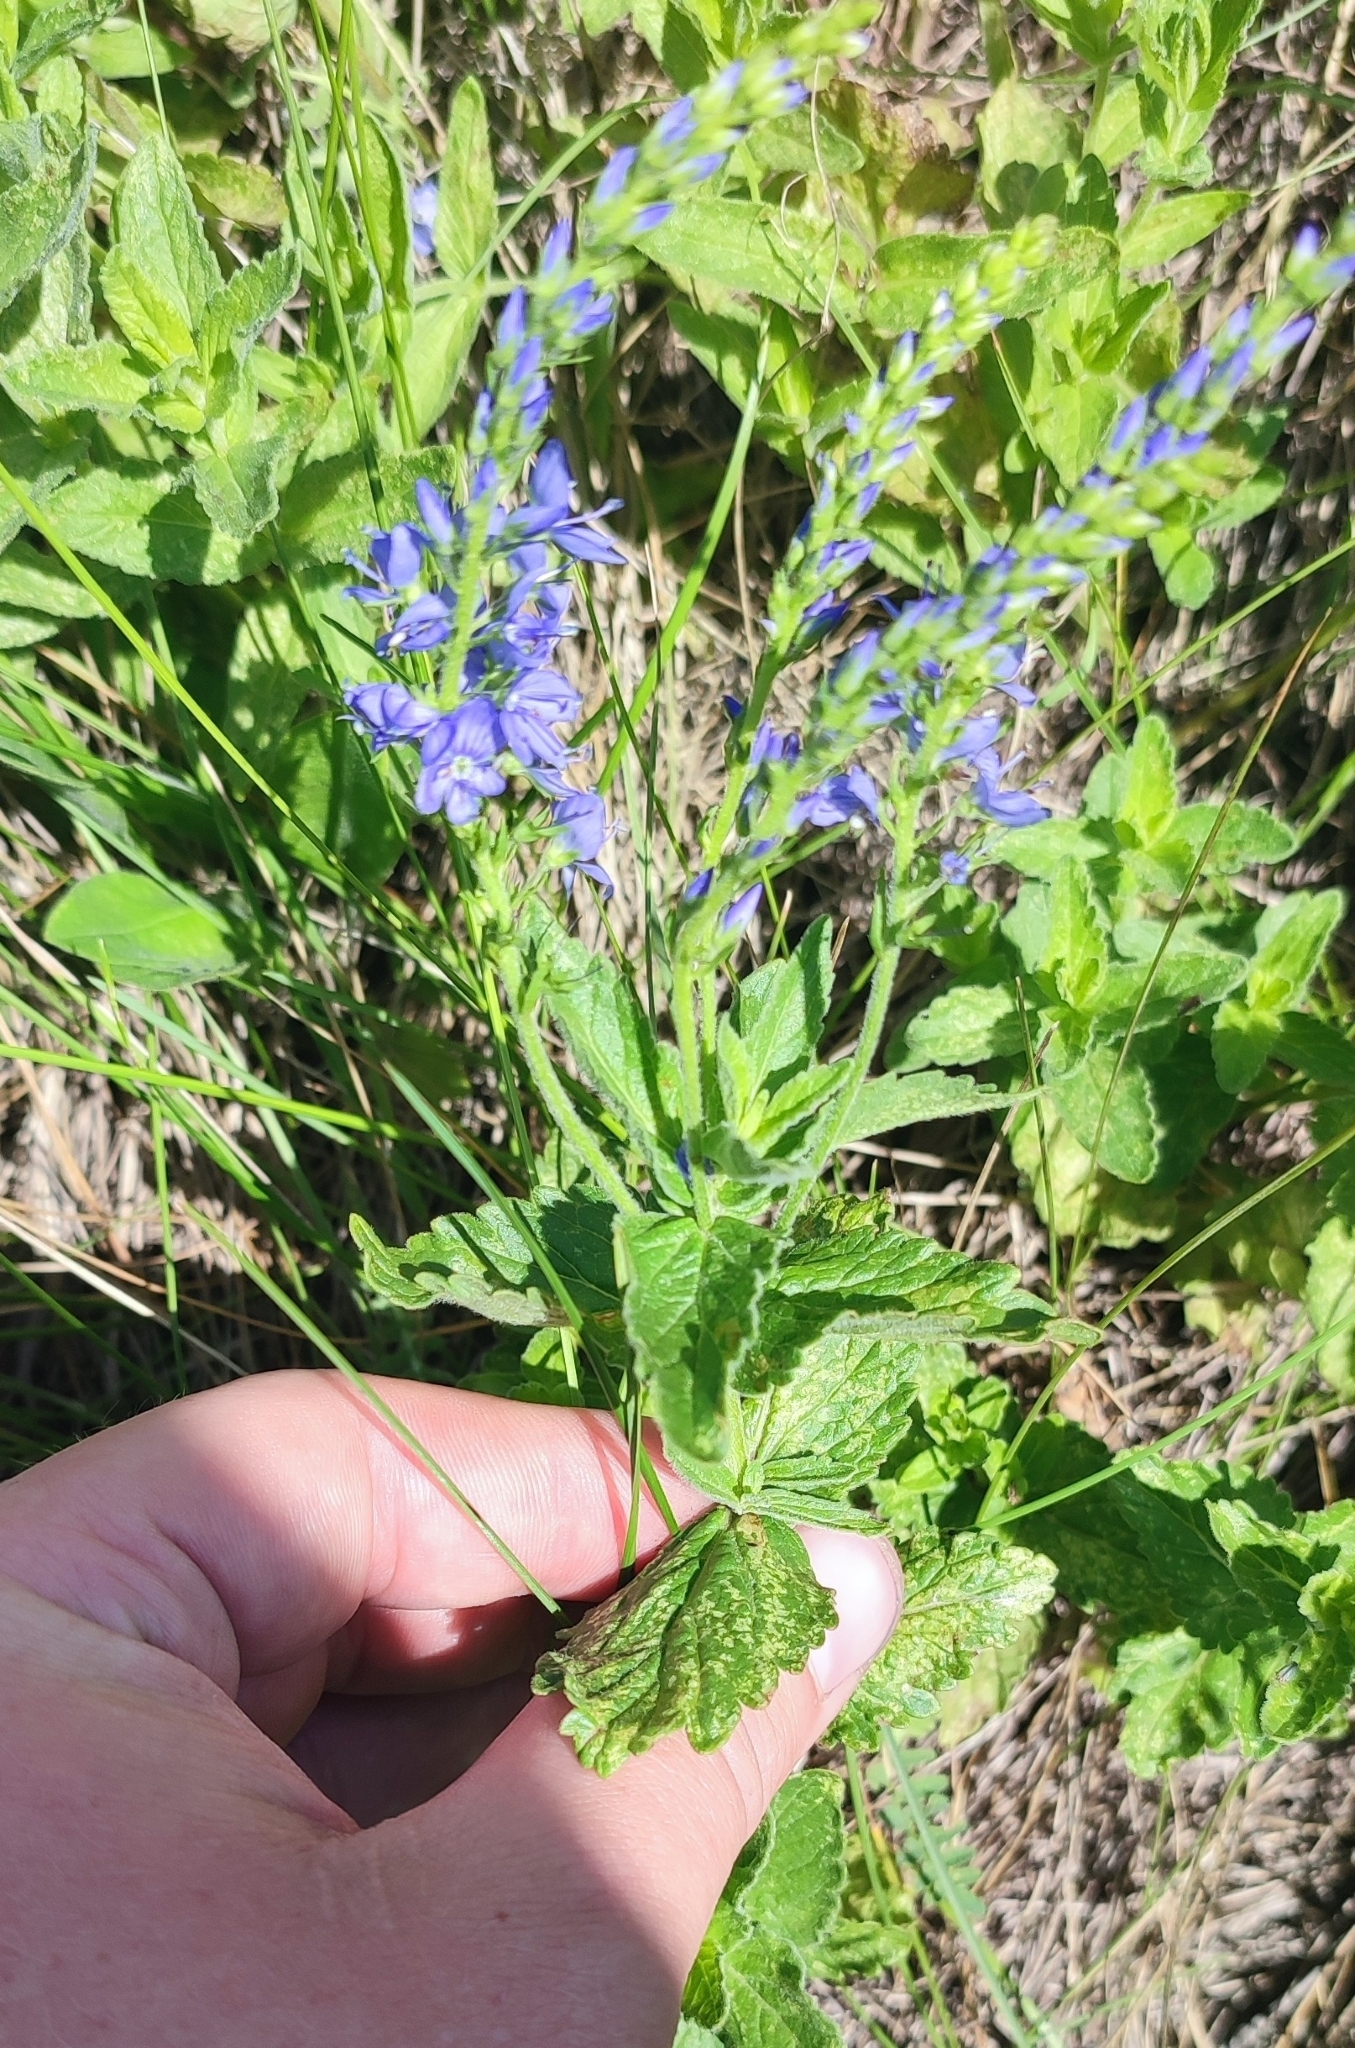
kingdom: Plantae
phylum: Tracheophyta
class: Magnoliopsida
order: Lamiales
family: Plantaginaceae
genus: Veronica
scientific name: Veronica teucrium
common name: Large speedwell
